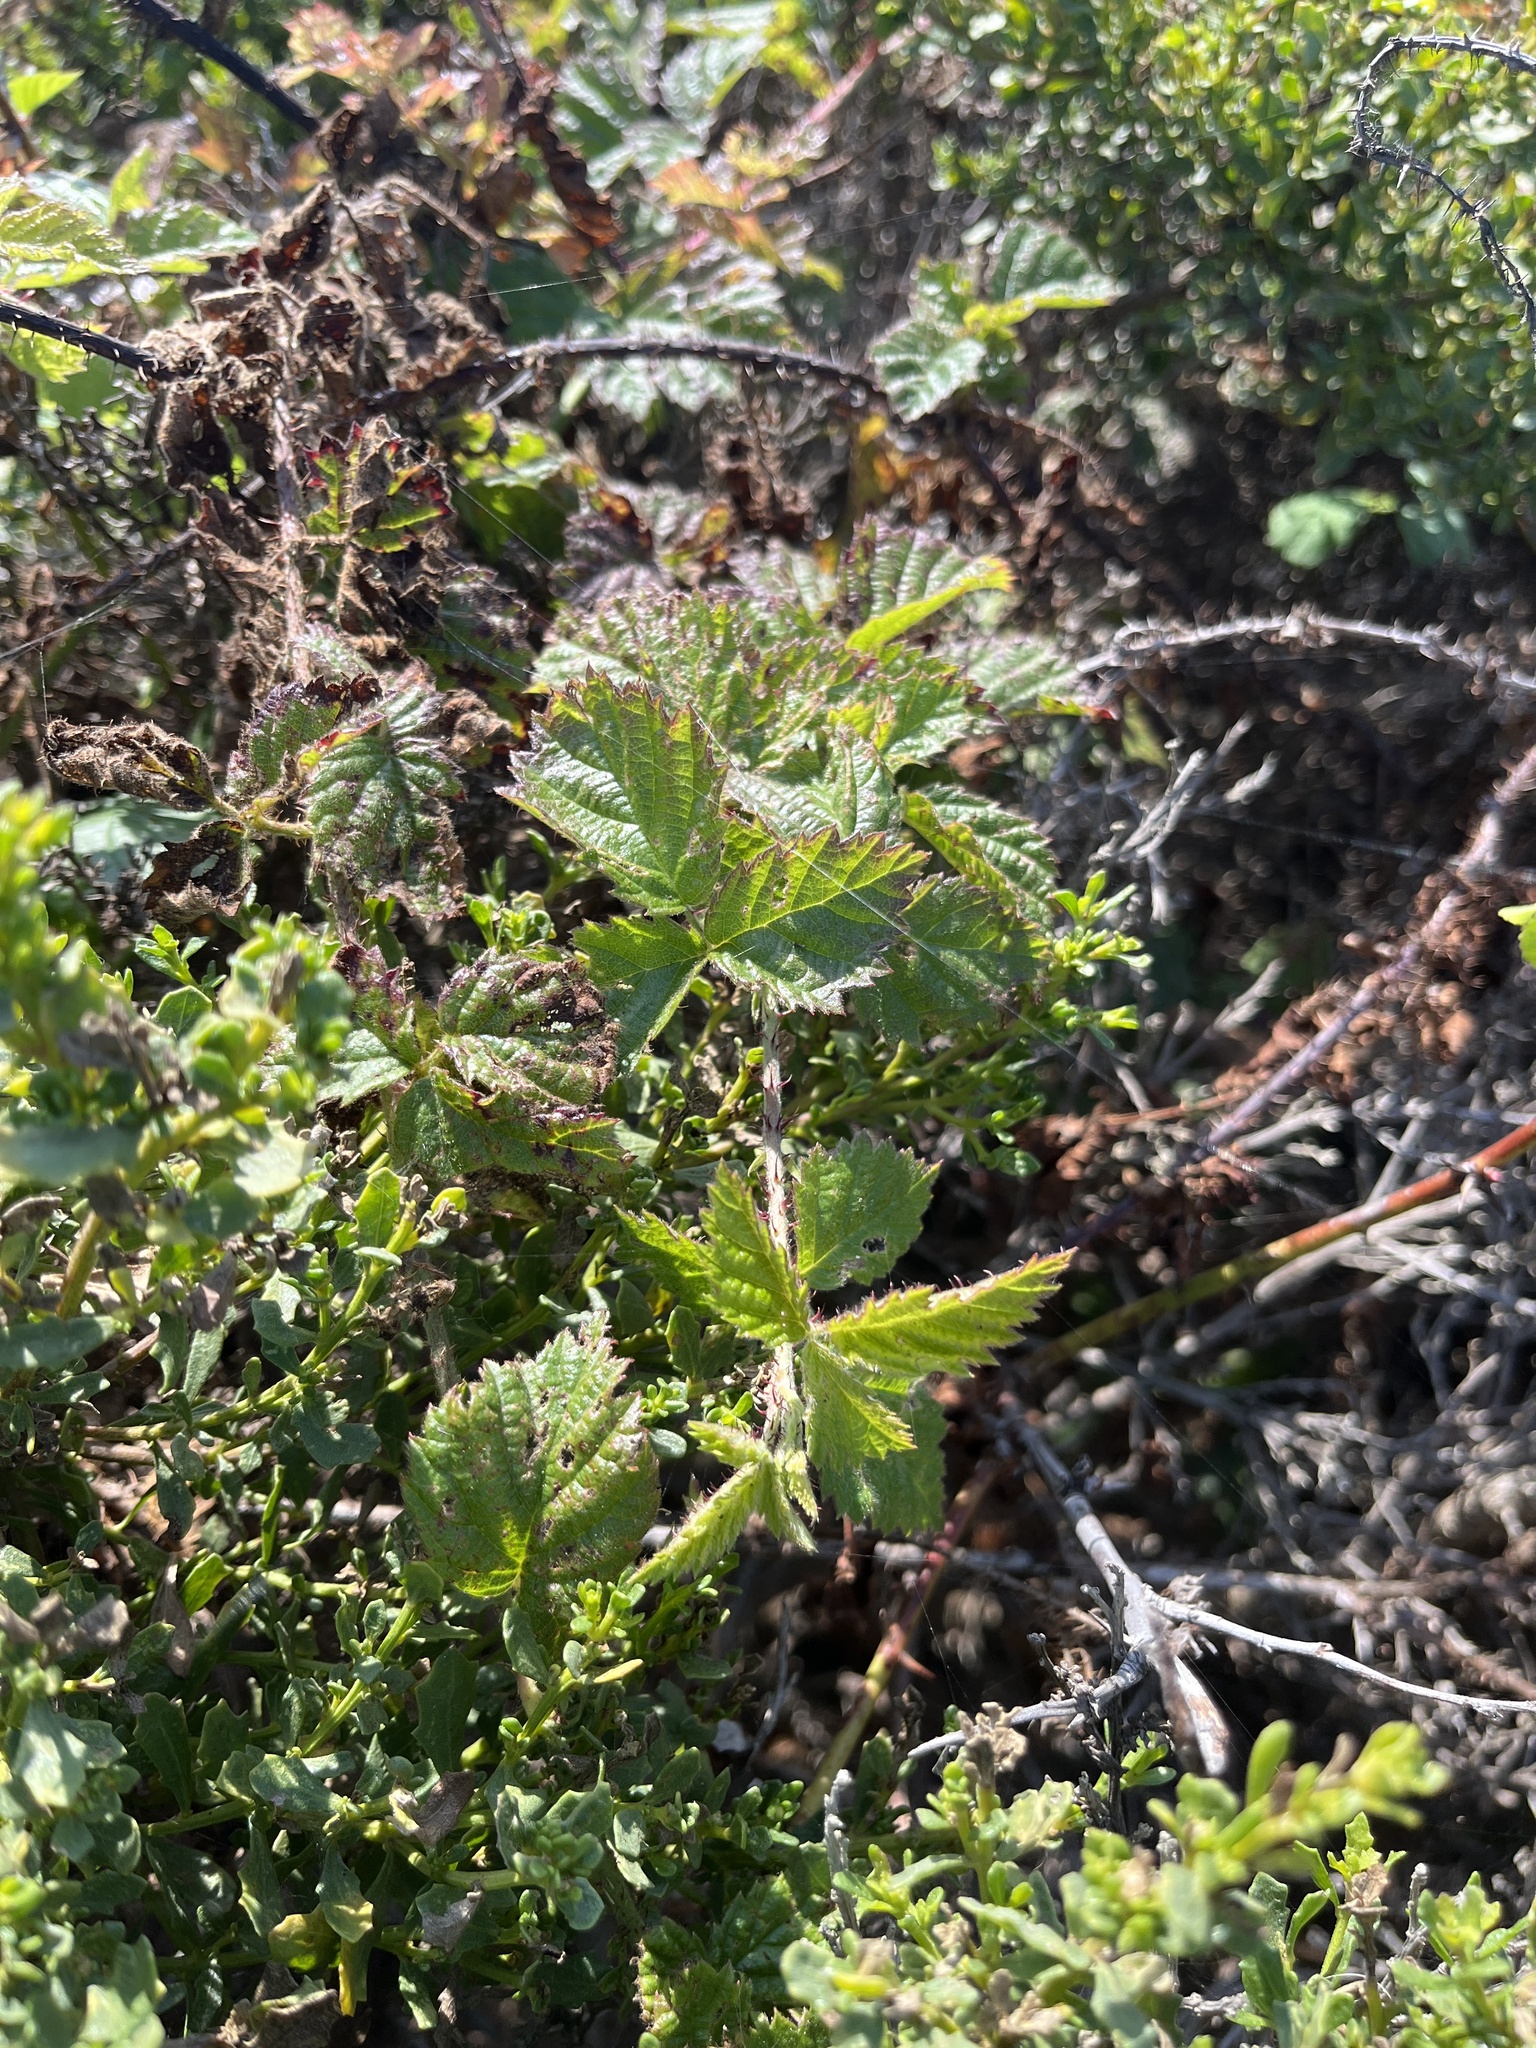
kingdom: Plantae
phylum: Tracheophyta
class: Magnoliopsida
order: Rosales
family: Rosaceae
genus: Rubus
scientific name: Rubus ursinus
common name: Pacific blackberry
